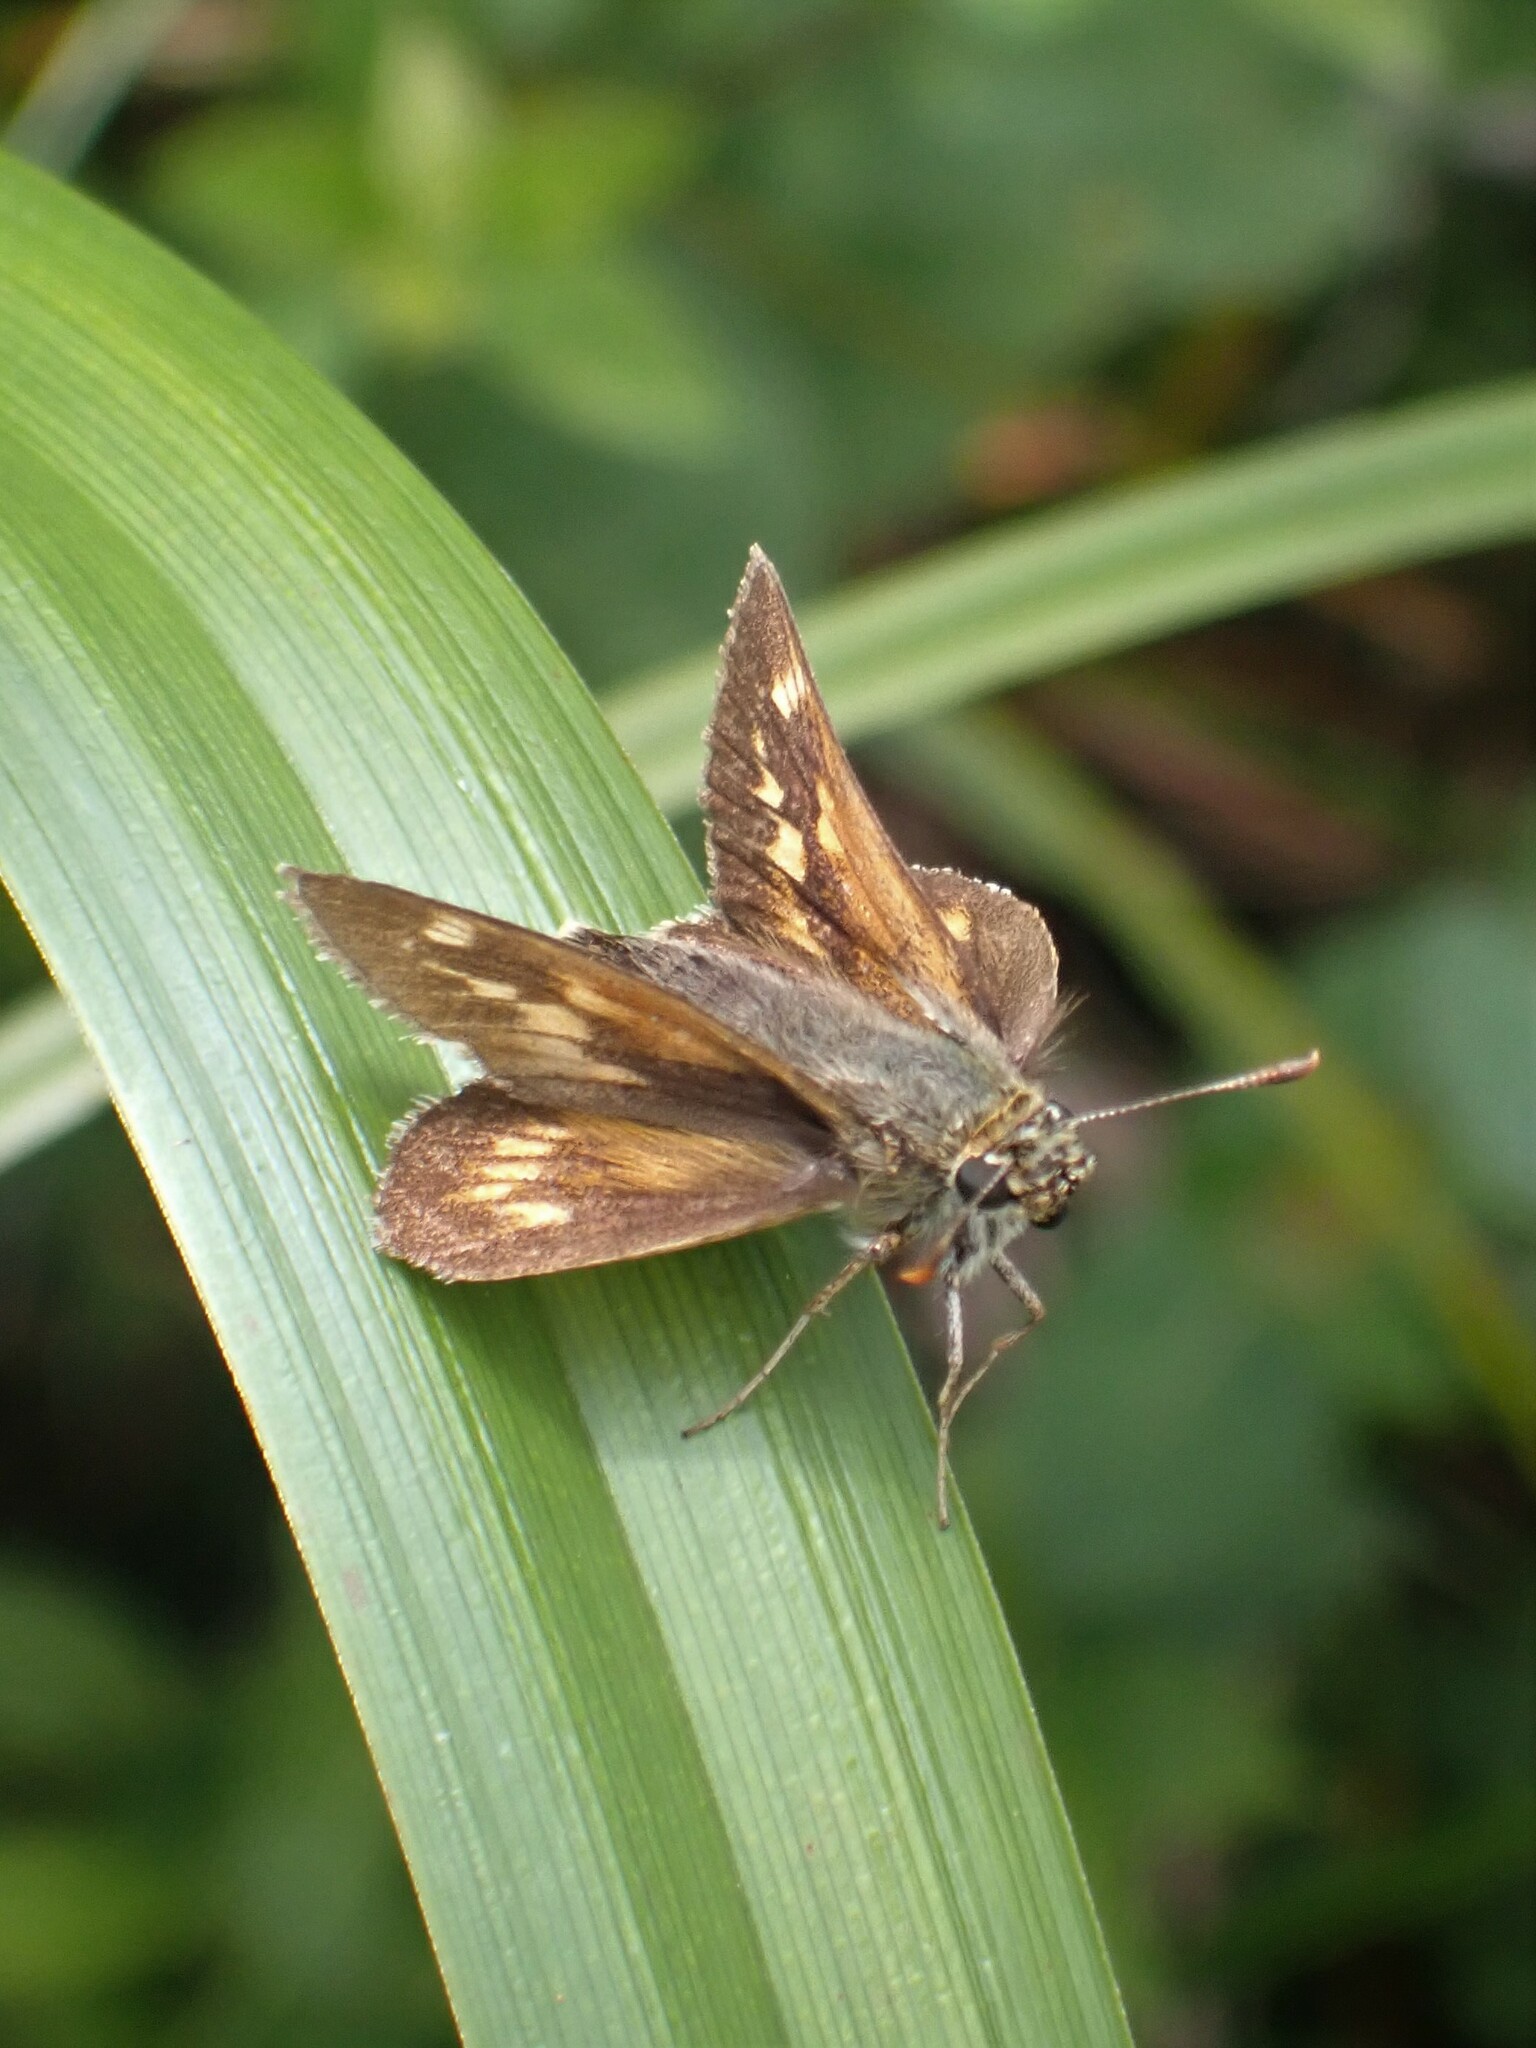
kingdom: Animalia
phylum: Arthropoda
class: Insecta
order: Lepidoptera
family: Hesperiidae
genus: Polites
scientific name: Polites mystic
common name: Long dash
